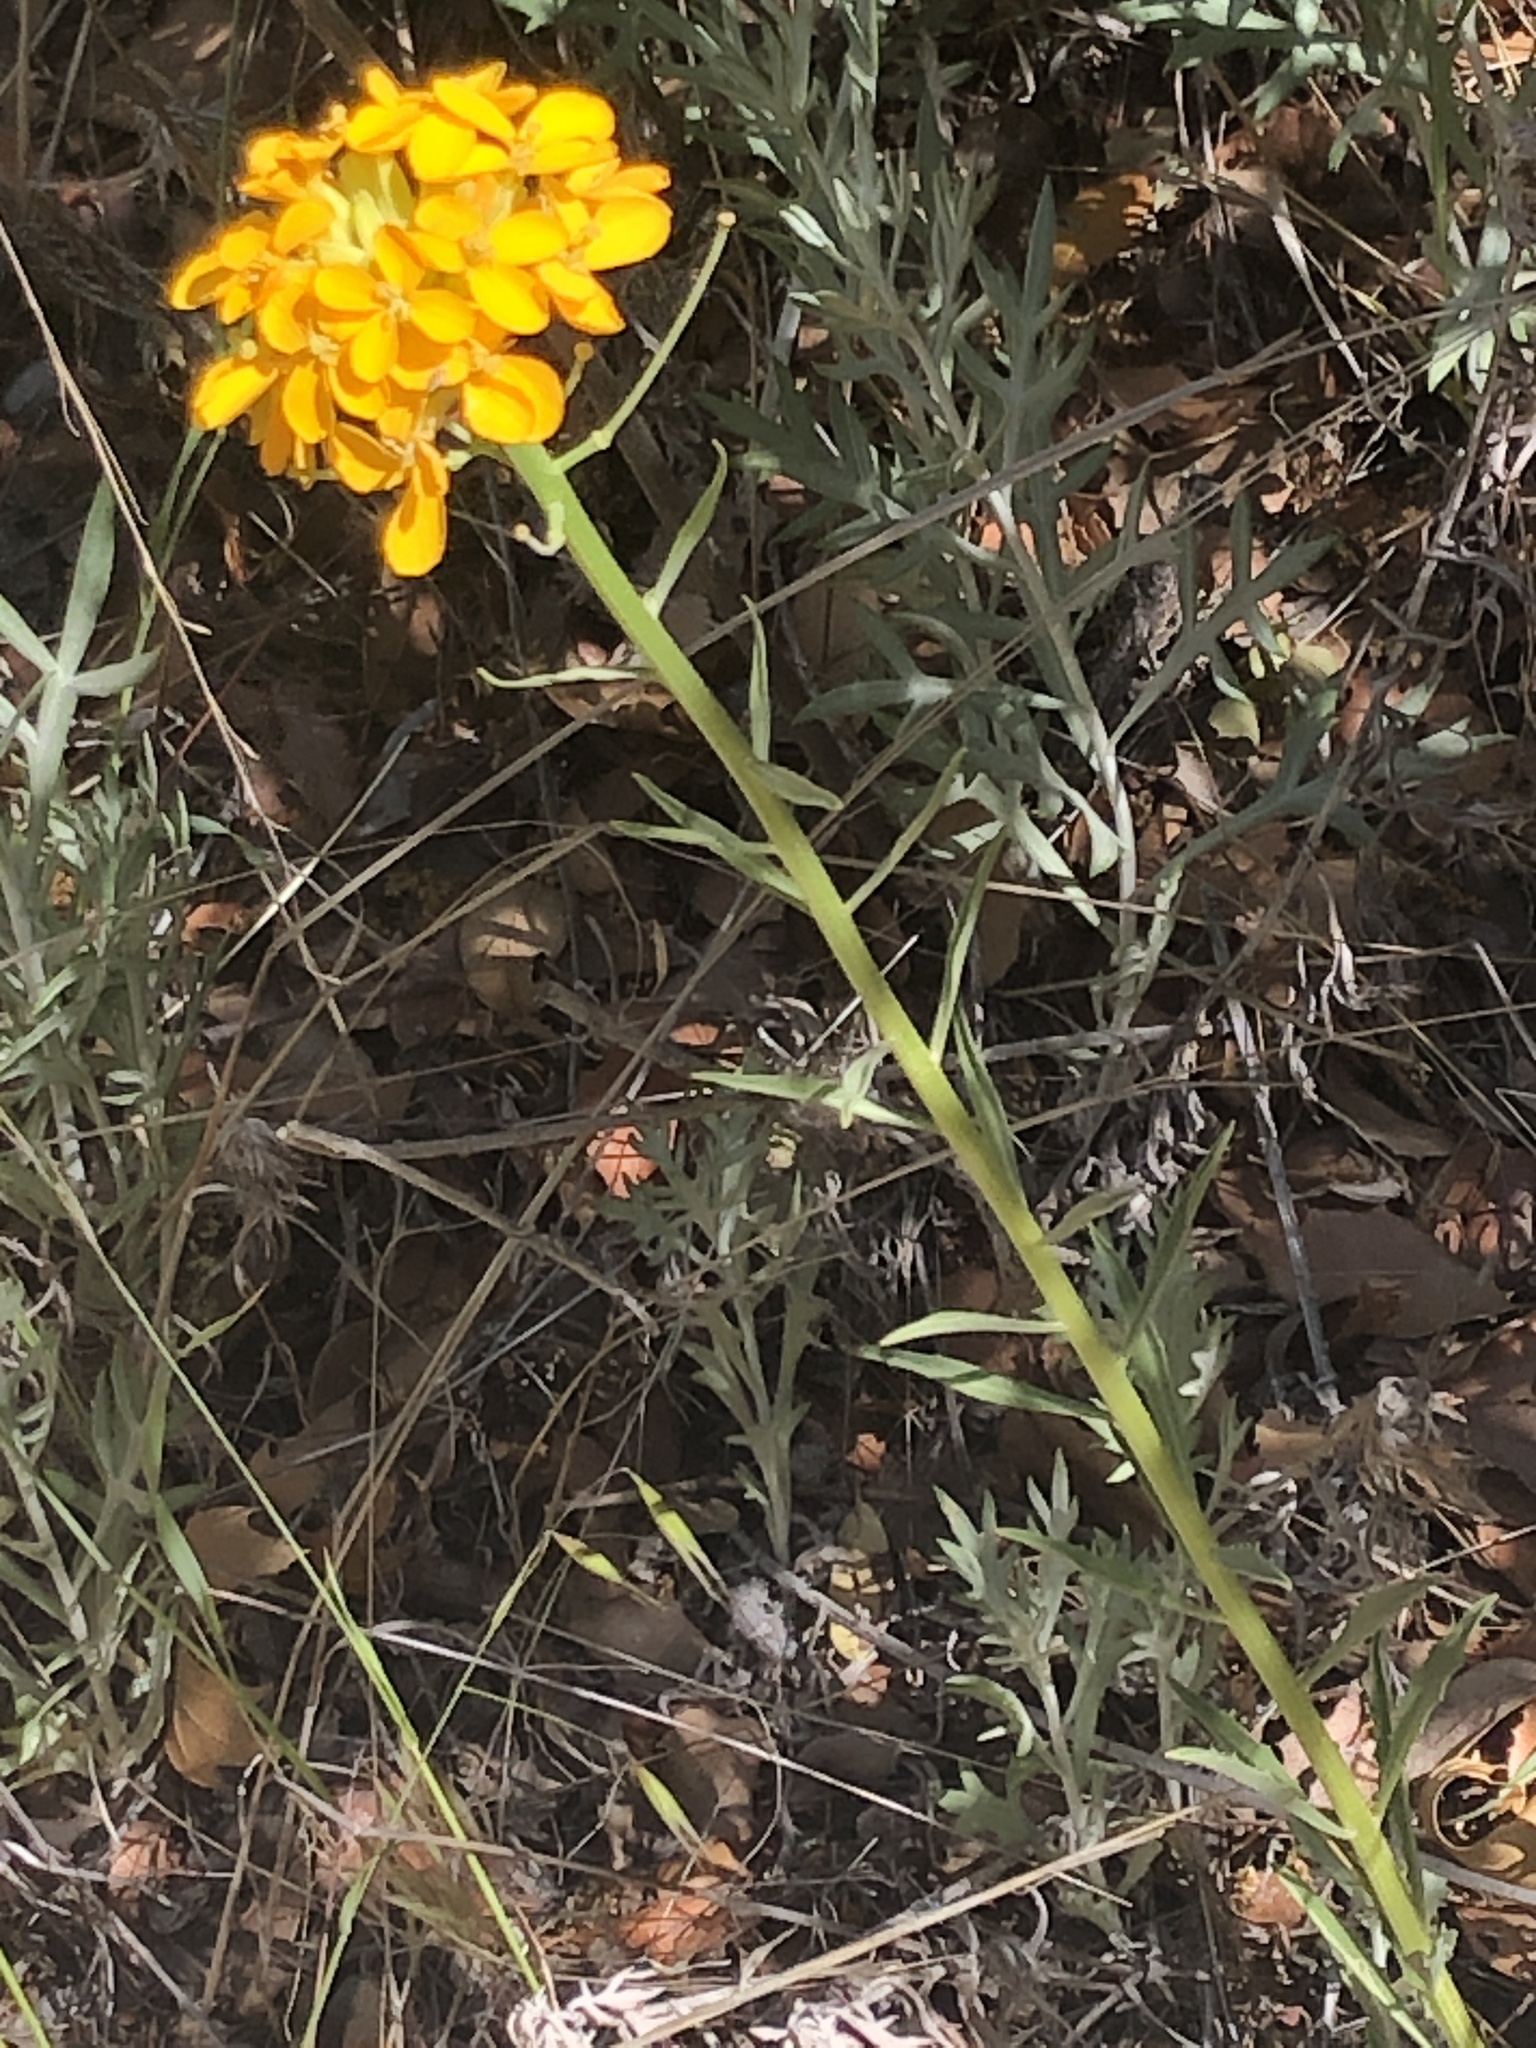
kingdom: Plantae
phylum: Tracheophyta
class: Magnoliopsida
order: Brassicales
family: Brassicaceae
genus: Erysimum
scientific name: Erysimum capitatum
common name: Western wallflower
